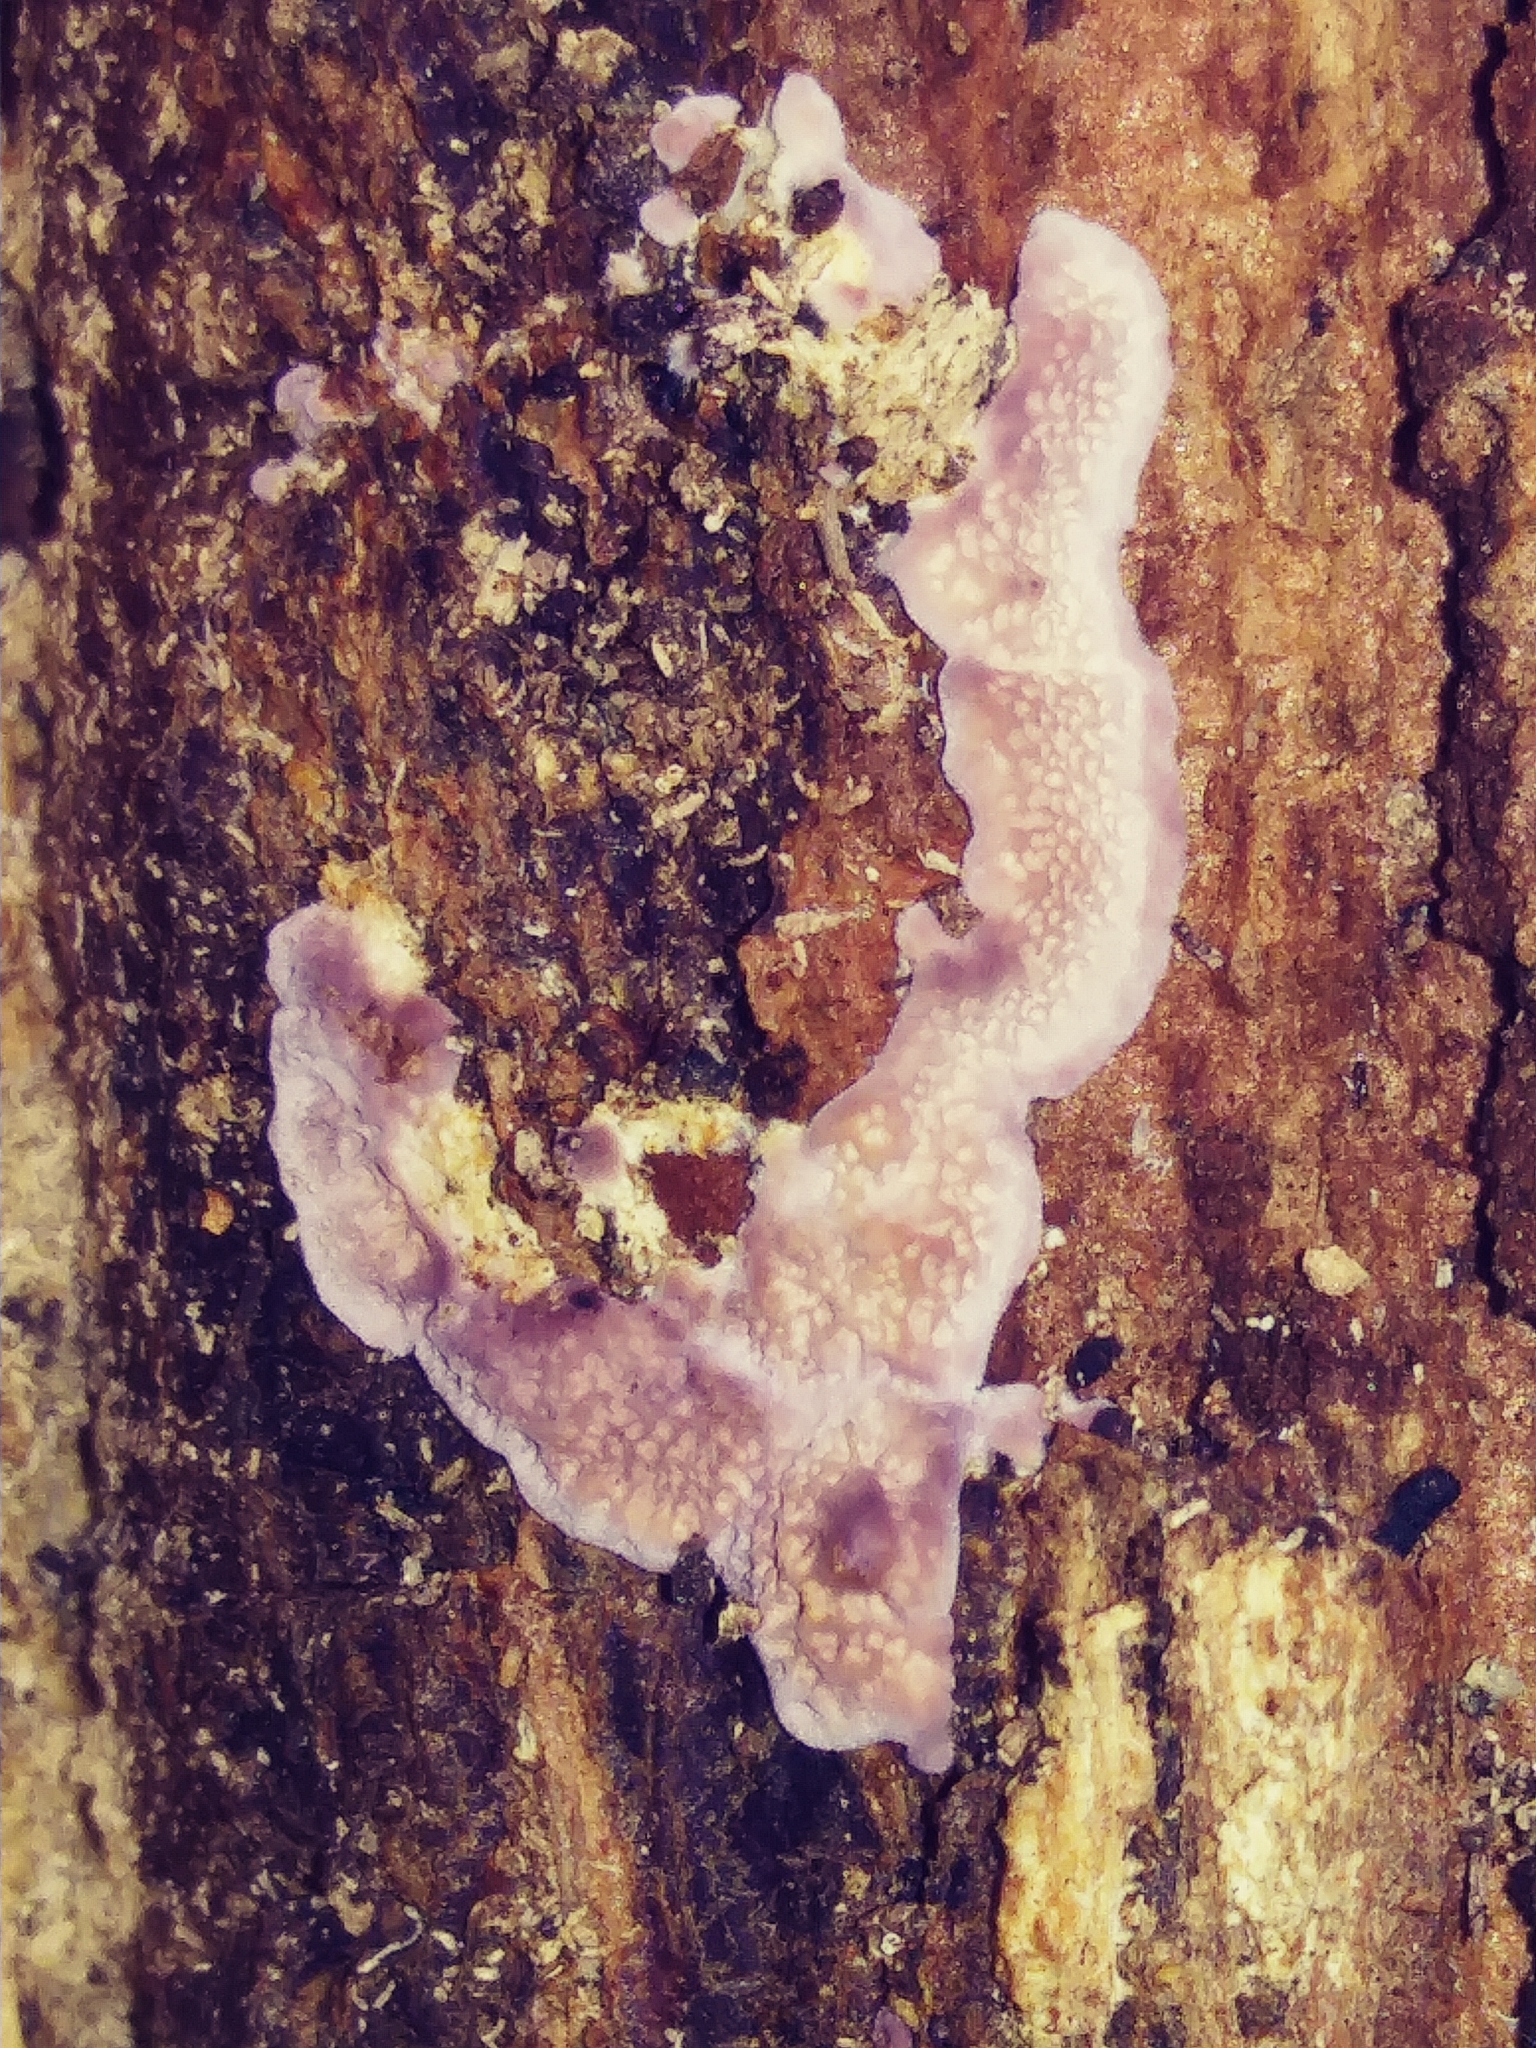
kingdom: Fungi
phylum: Basidiomycota
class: Agaricomycetes
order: Agaricales
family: Cyphellaceae
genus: Chondrostereum
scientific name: Chondrostereum purpureum
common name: Silver leaf disease
